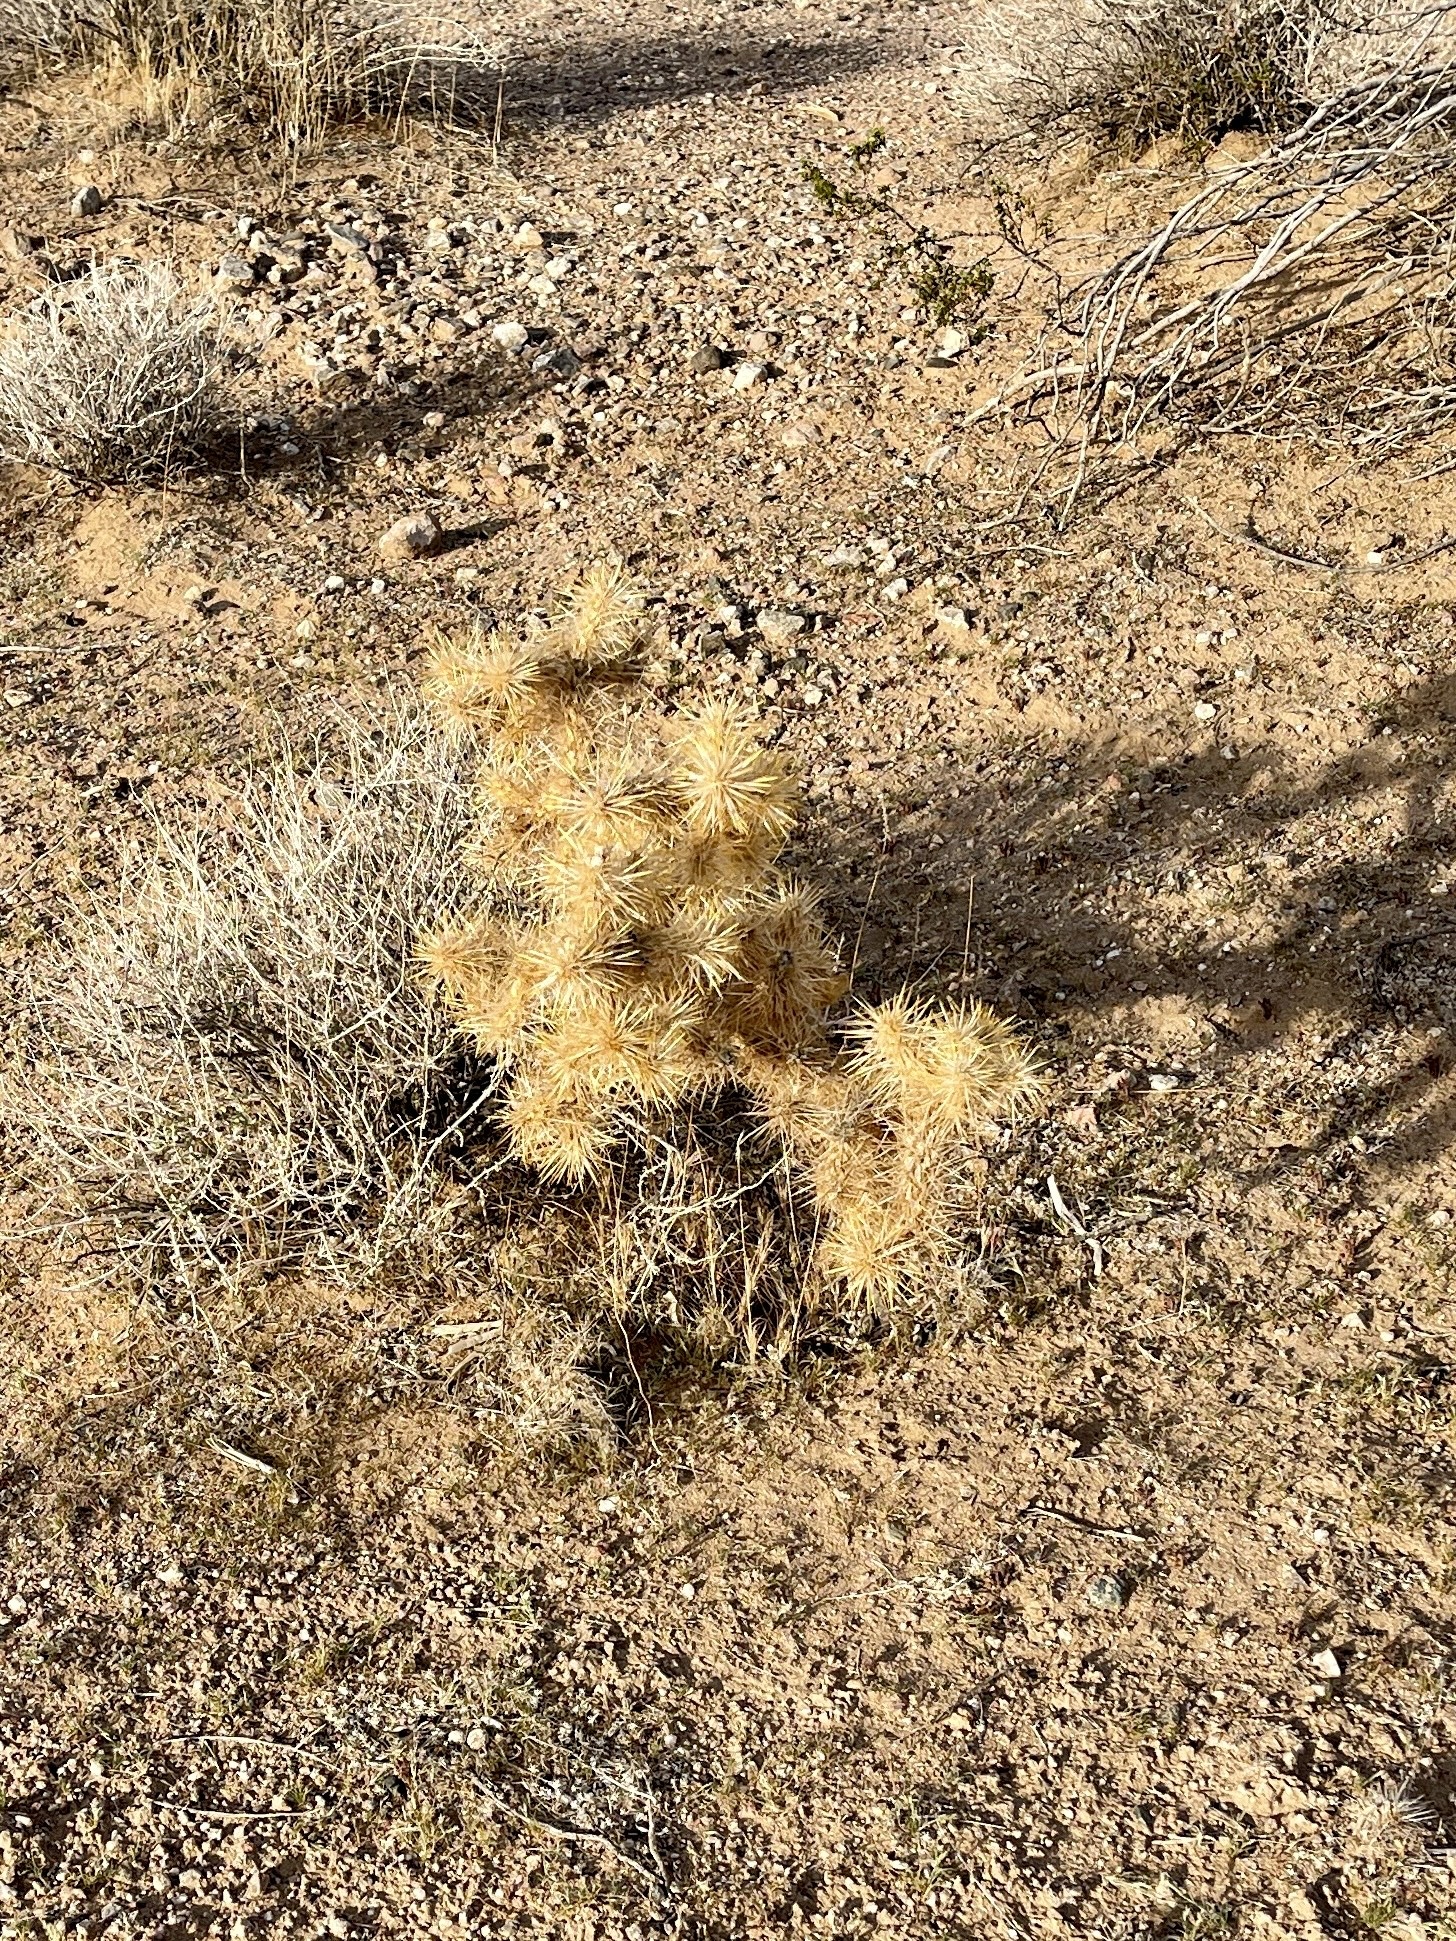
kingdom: Plantae
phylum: Tracheophyta
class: Magnoliopsida
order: Caryophyllales
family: Cactaceae
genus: Cylindropuntia
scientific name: Cylindropuntia echinocarpa
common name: Ground cholla
